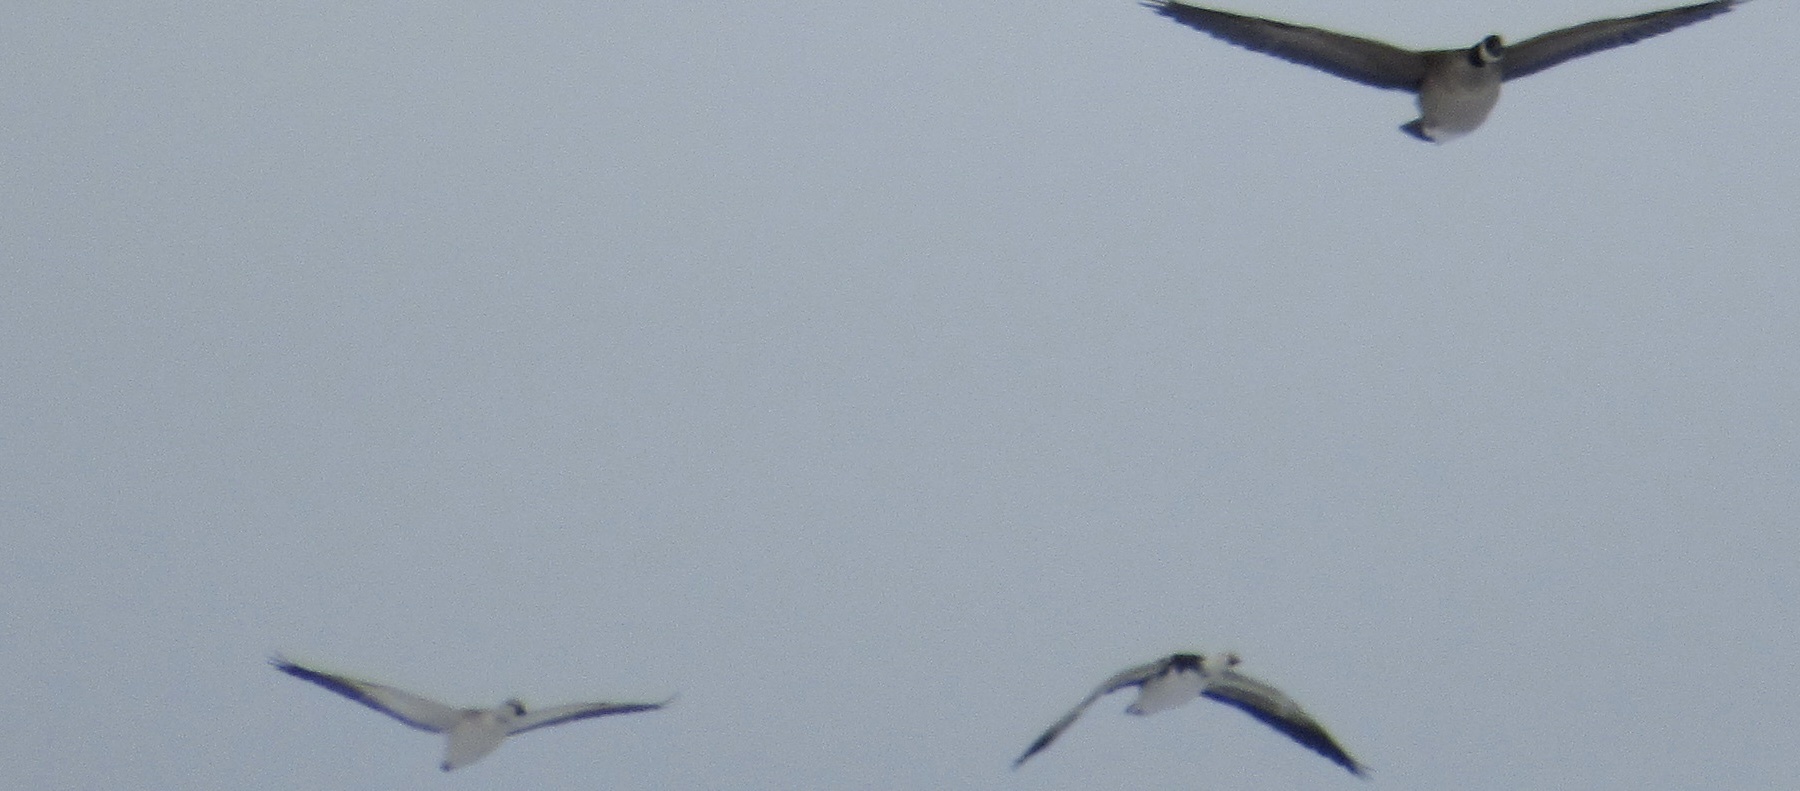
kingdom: Animalia
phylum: Chordata
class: Aves
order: Anseriformes
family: Anatidae
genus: Anser
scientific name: Anser caerulescens
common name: Snow goose
